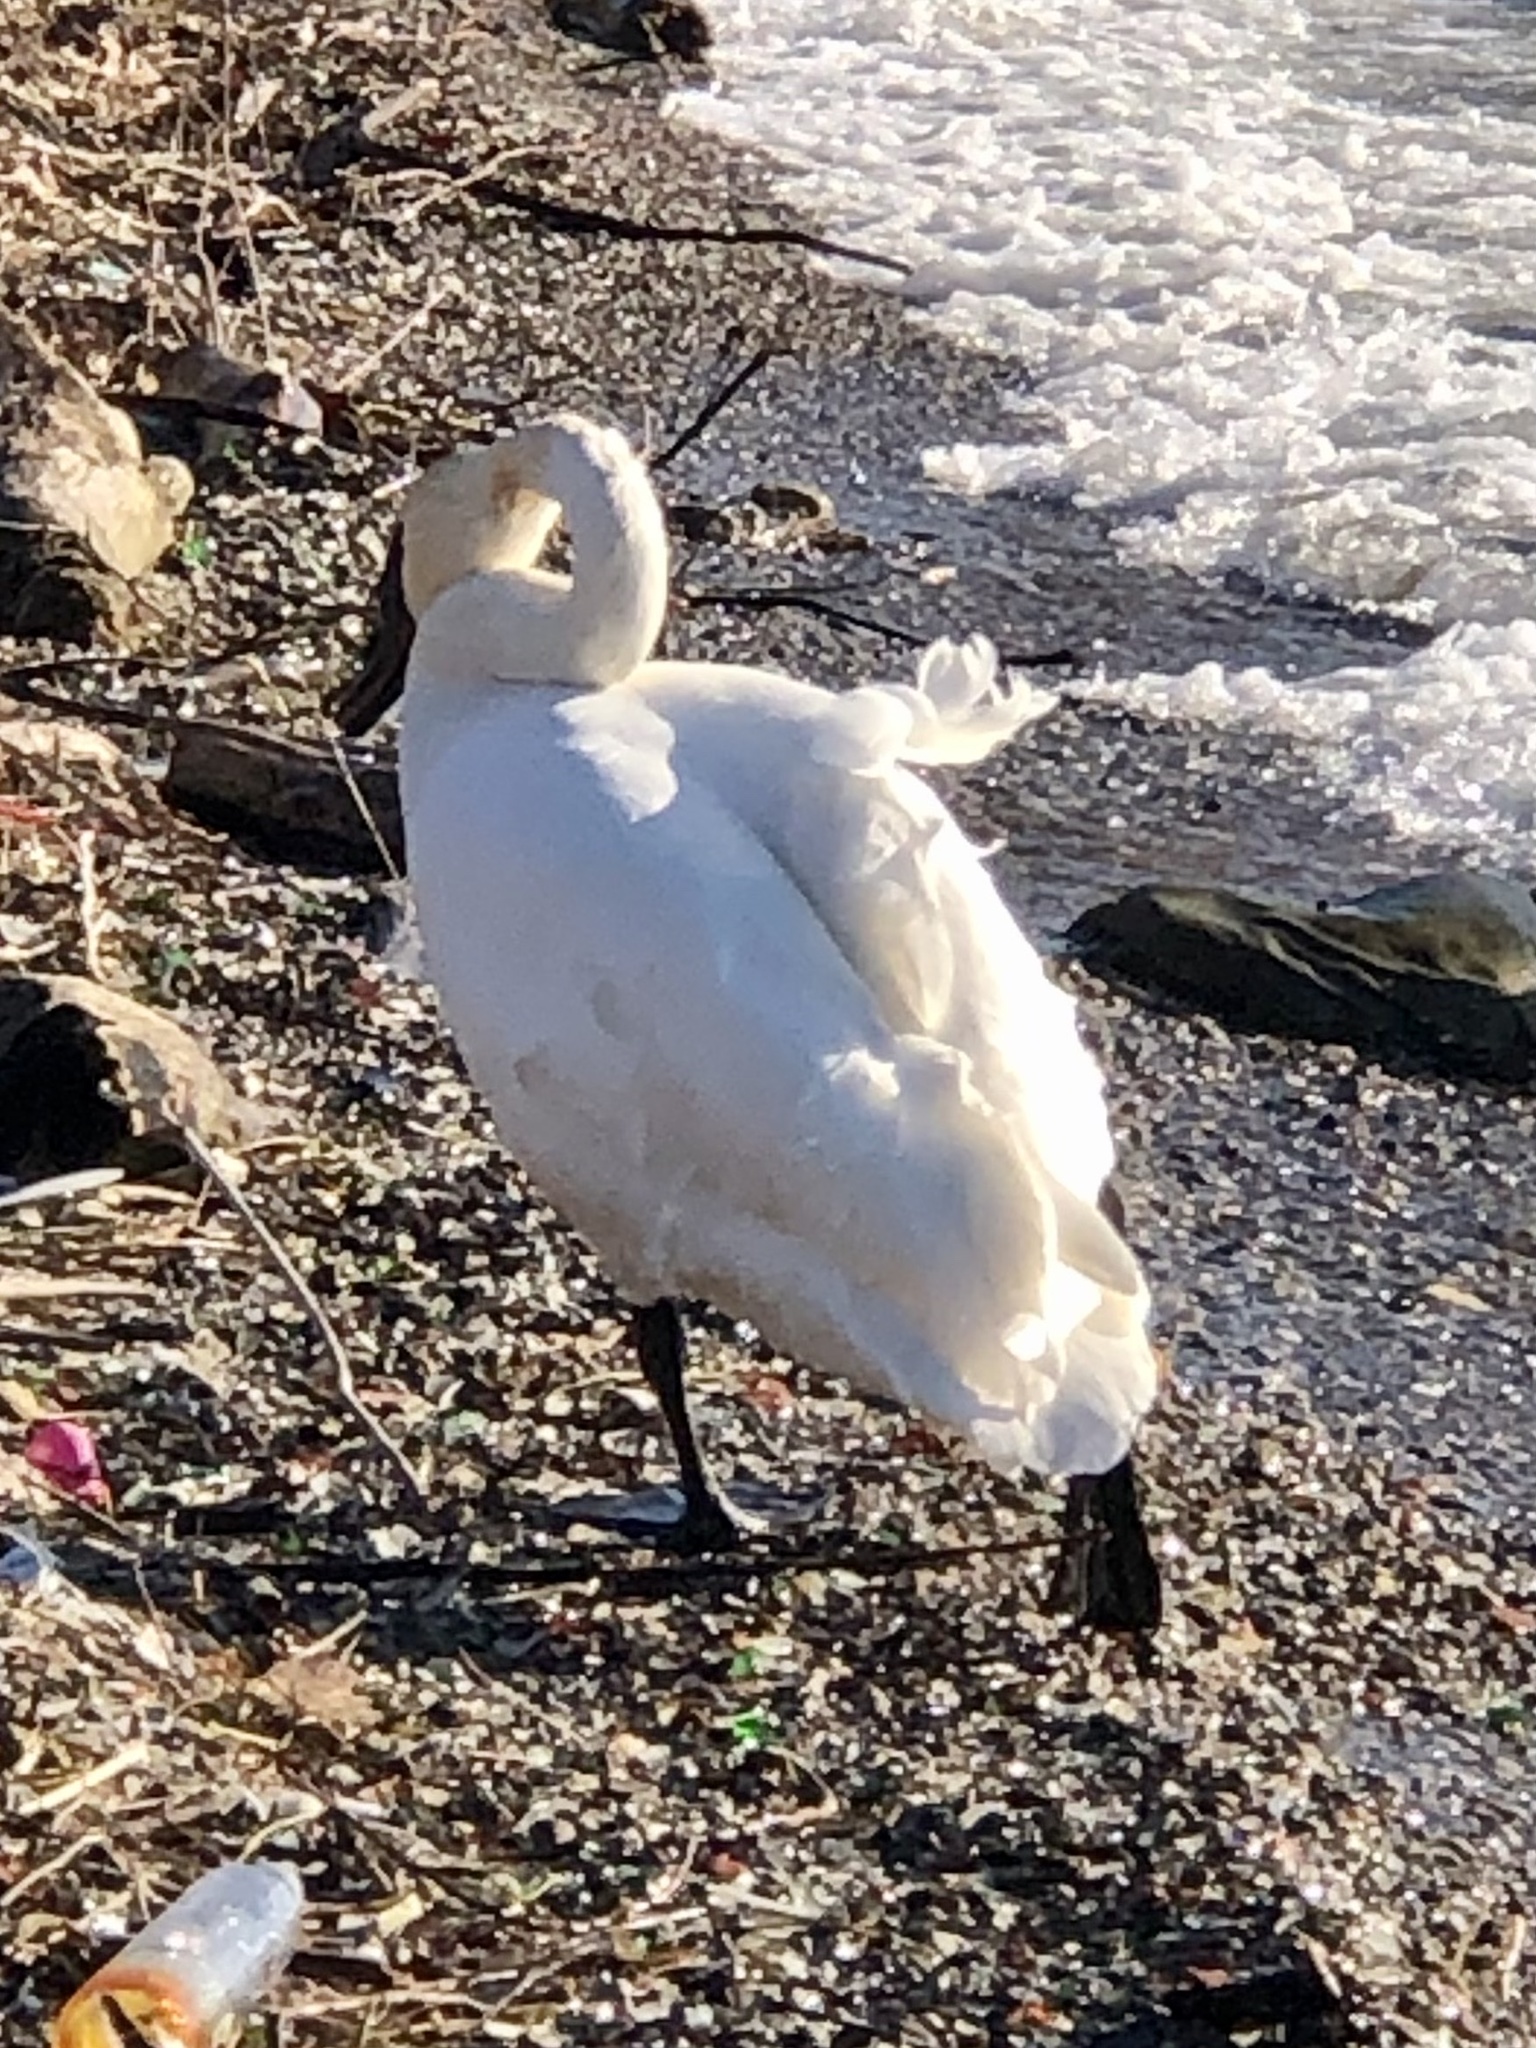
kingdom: Animalia
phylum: Chordata
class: Aves
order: Anseriformes
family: Anatidae
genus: Cygnus
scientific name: Cygnus buccinator
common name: Trumpeter swan
